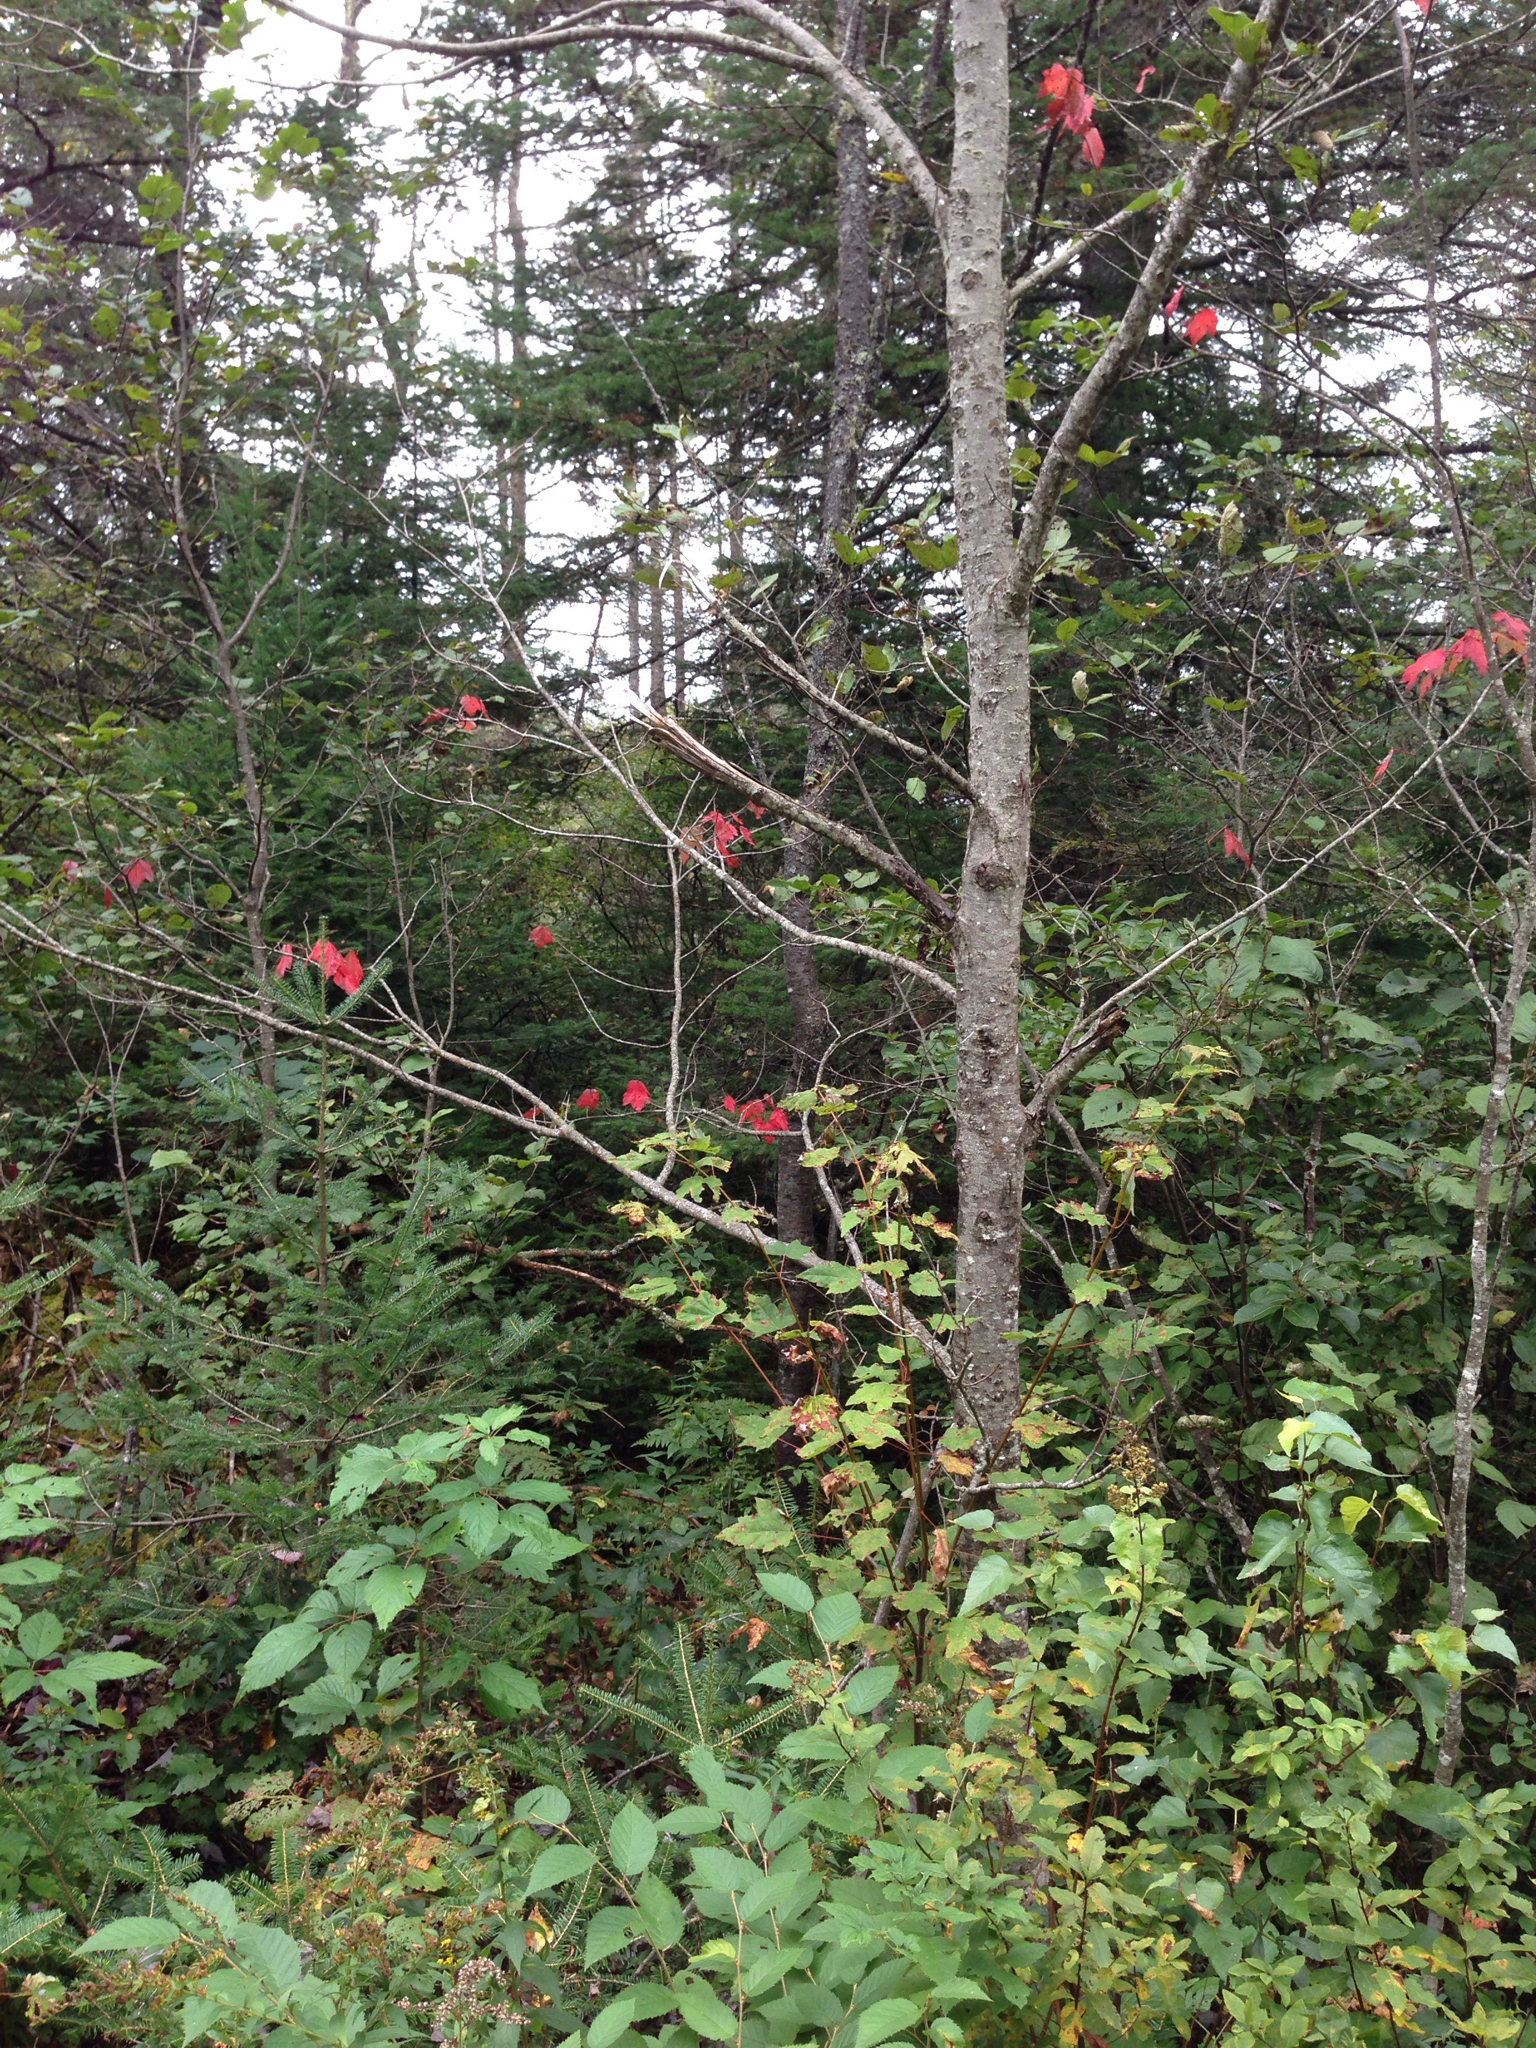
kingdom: Plantae
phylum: Tracheophyta
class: Magnoliopsida
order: Sapindales
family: Sapindaceae
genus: Acer
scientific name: Acer rubrum
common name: Red maple
